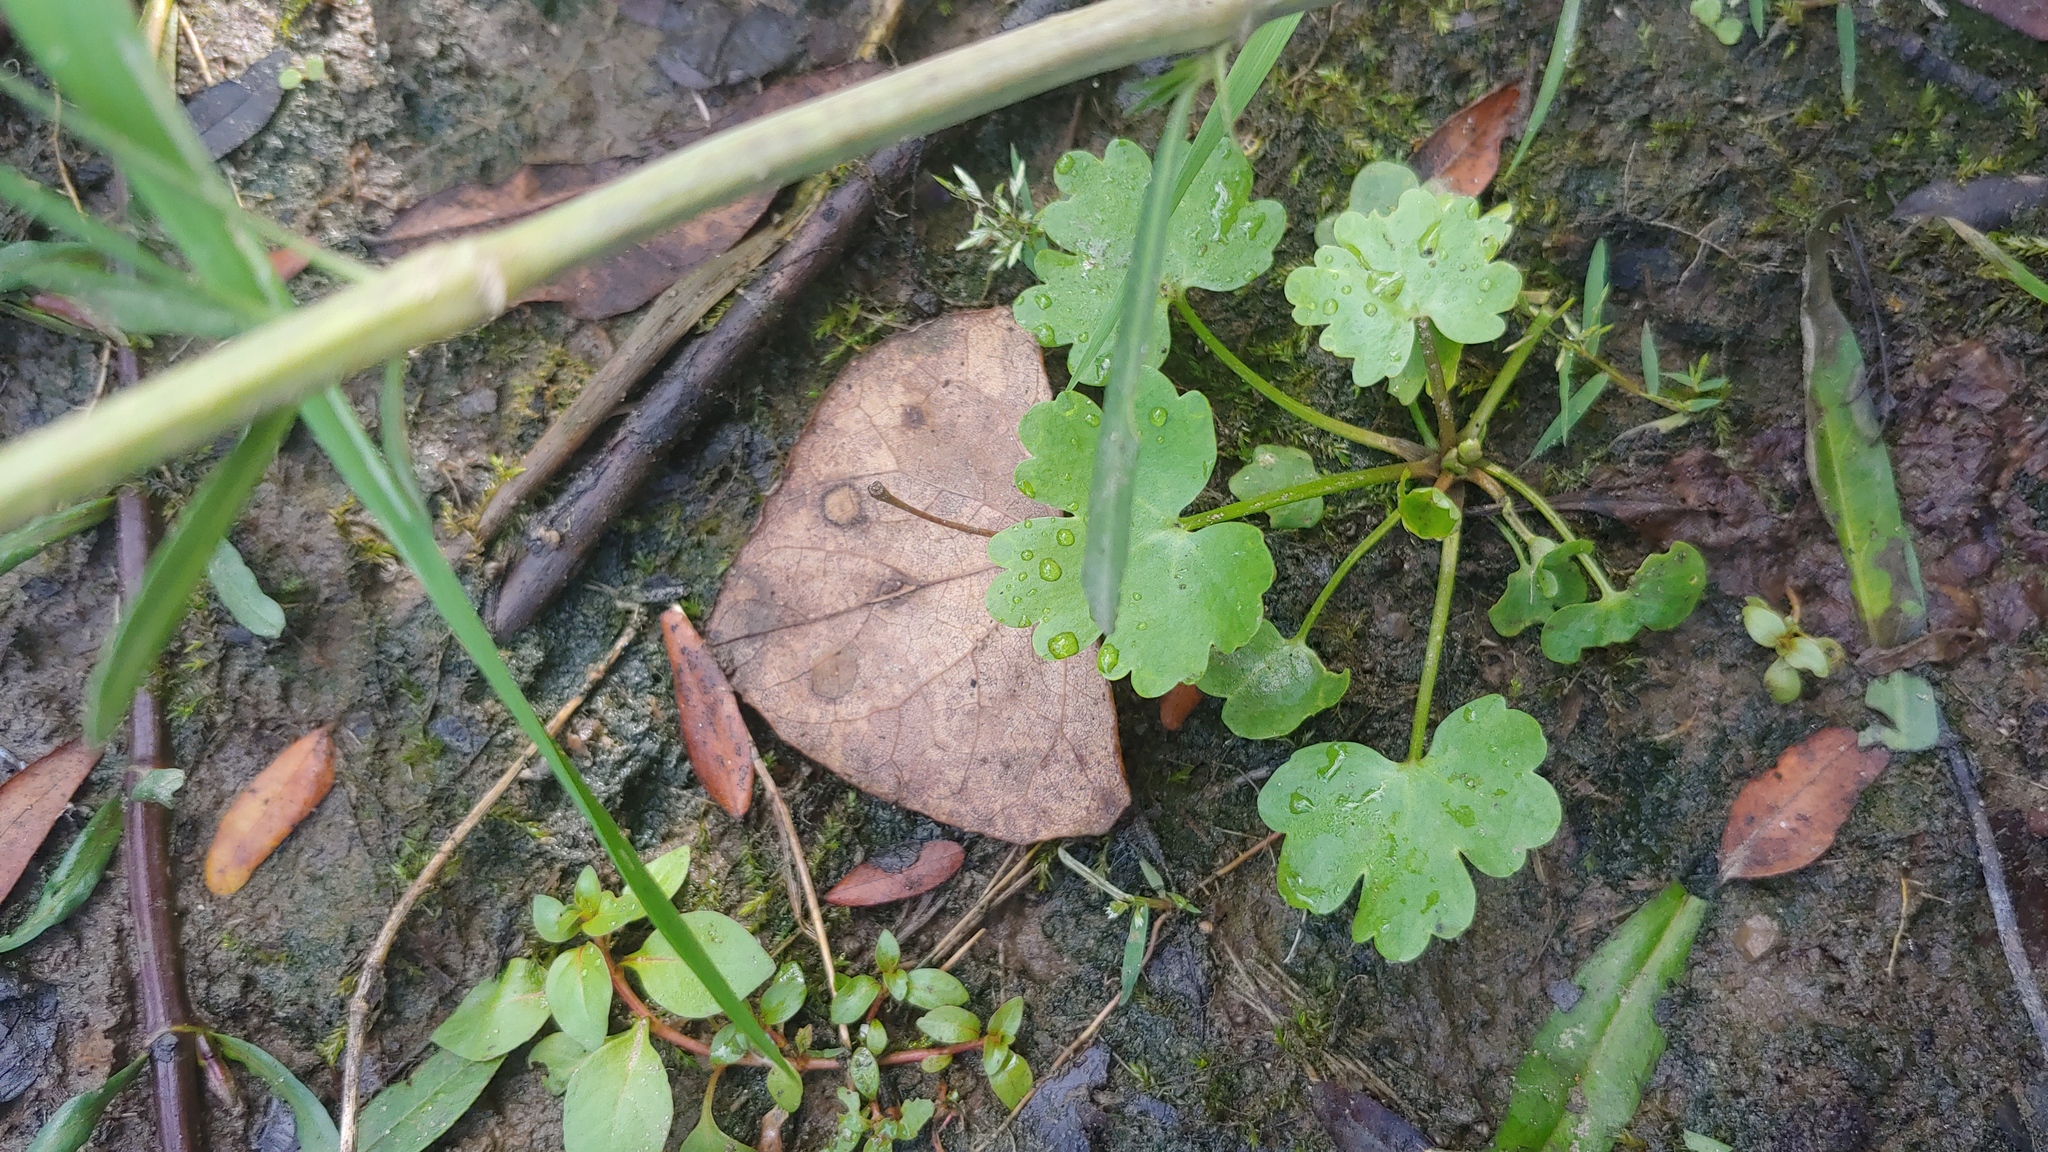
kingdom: Plantae
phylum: Tracheophyta
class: Magnoliopsida
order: Ranunculales
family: Ranunculaceae
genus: Ranunculus
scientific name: Ranunculus sceleratus
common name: Celery-leaved buttercup
